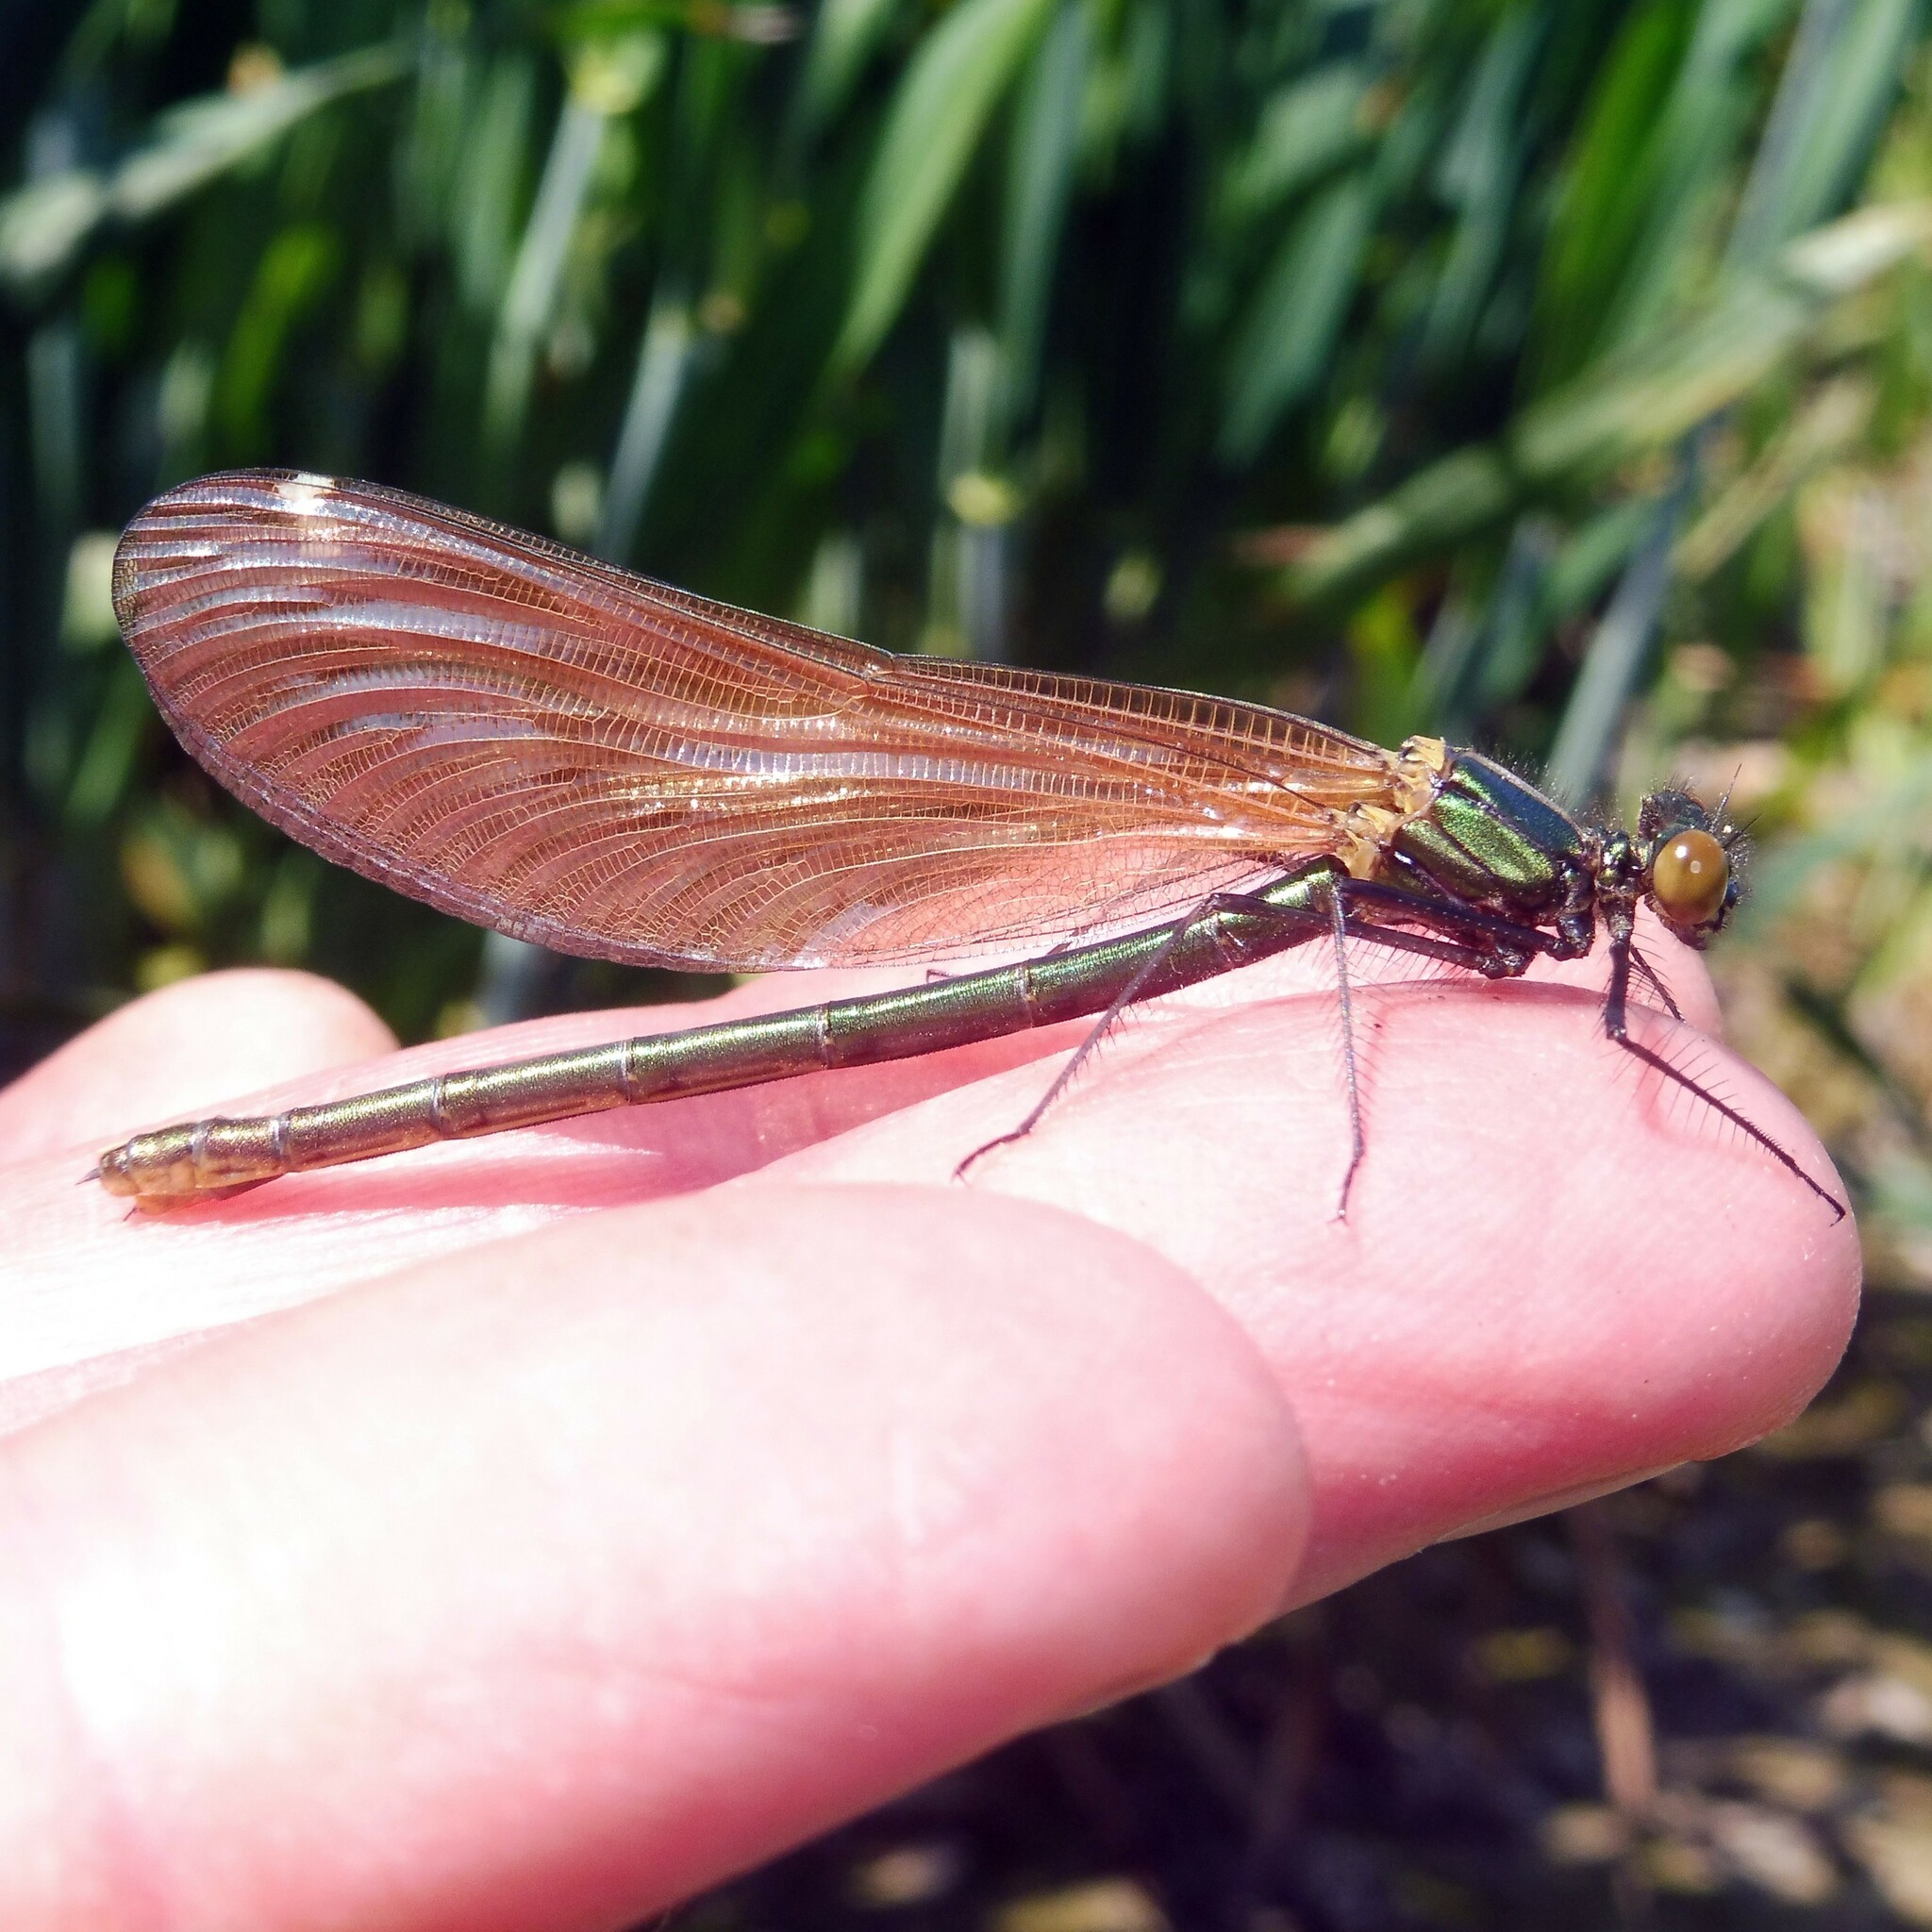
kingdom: Animalia
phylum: Arthropoda
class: Insecta
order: Odonata
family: Calopterygidae
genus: Calopteryx
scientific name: Calopteryx virgo
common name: Beautiful demoiselle
